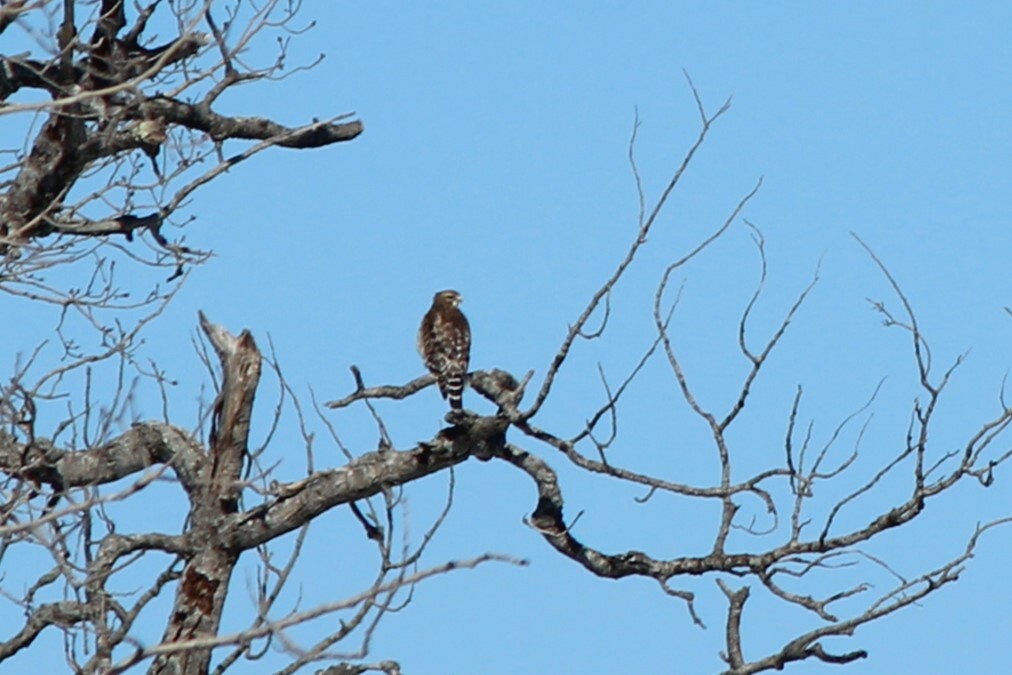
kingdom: Animalia
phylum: Chordata
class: Aves
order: Accipitriformes
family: Accipitridae
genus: Buteo
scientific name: Buteo lineatus
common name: Red-shouldered hawk
